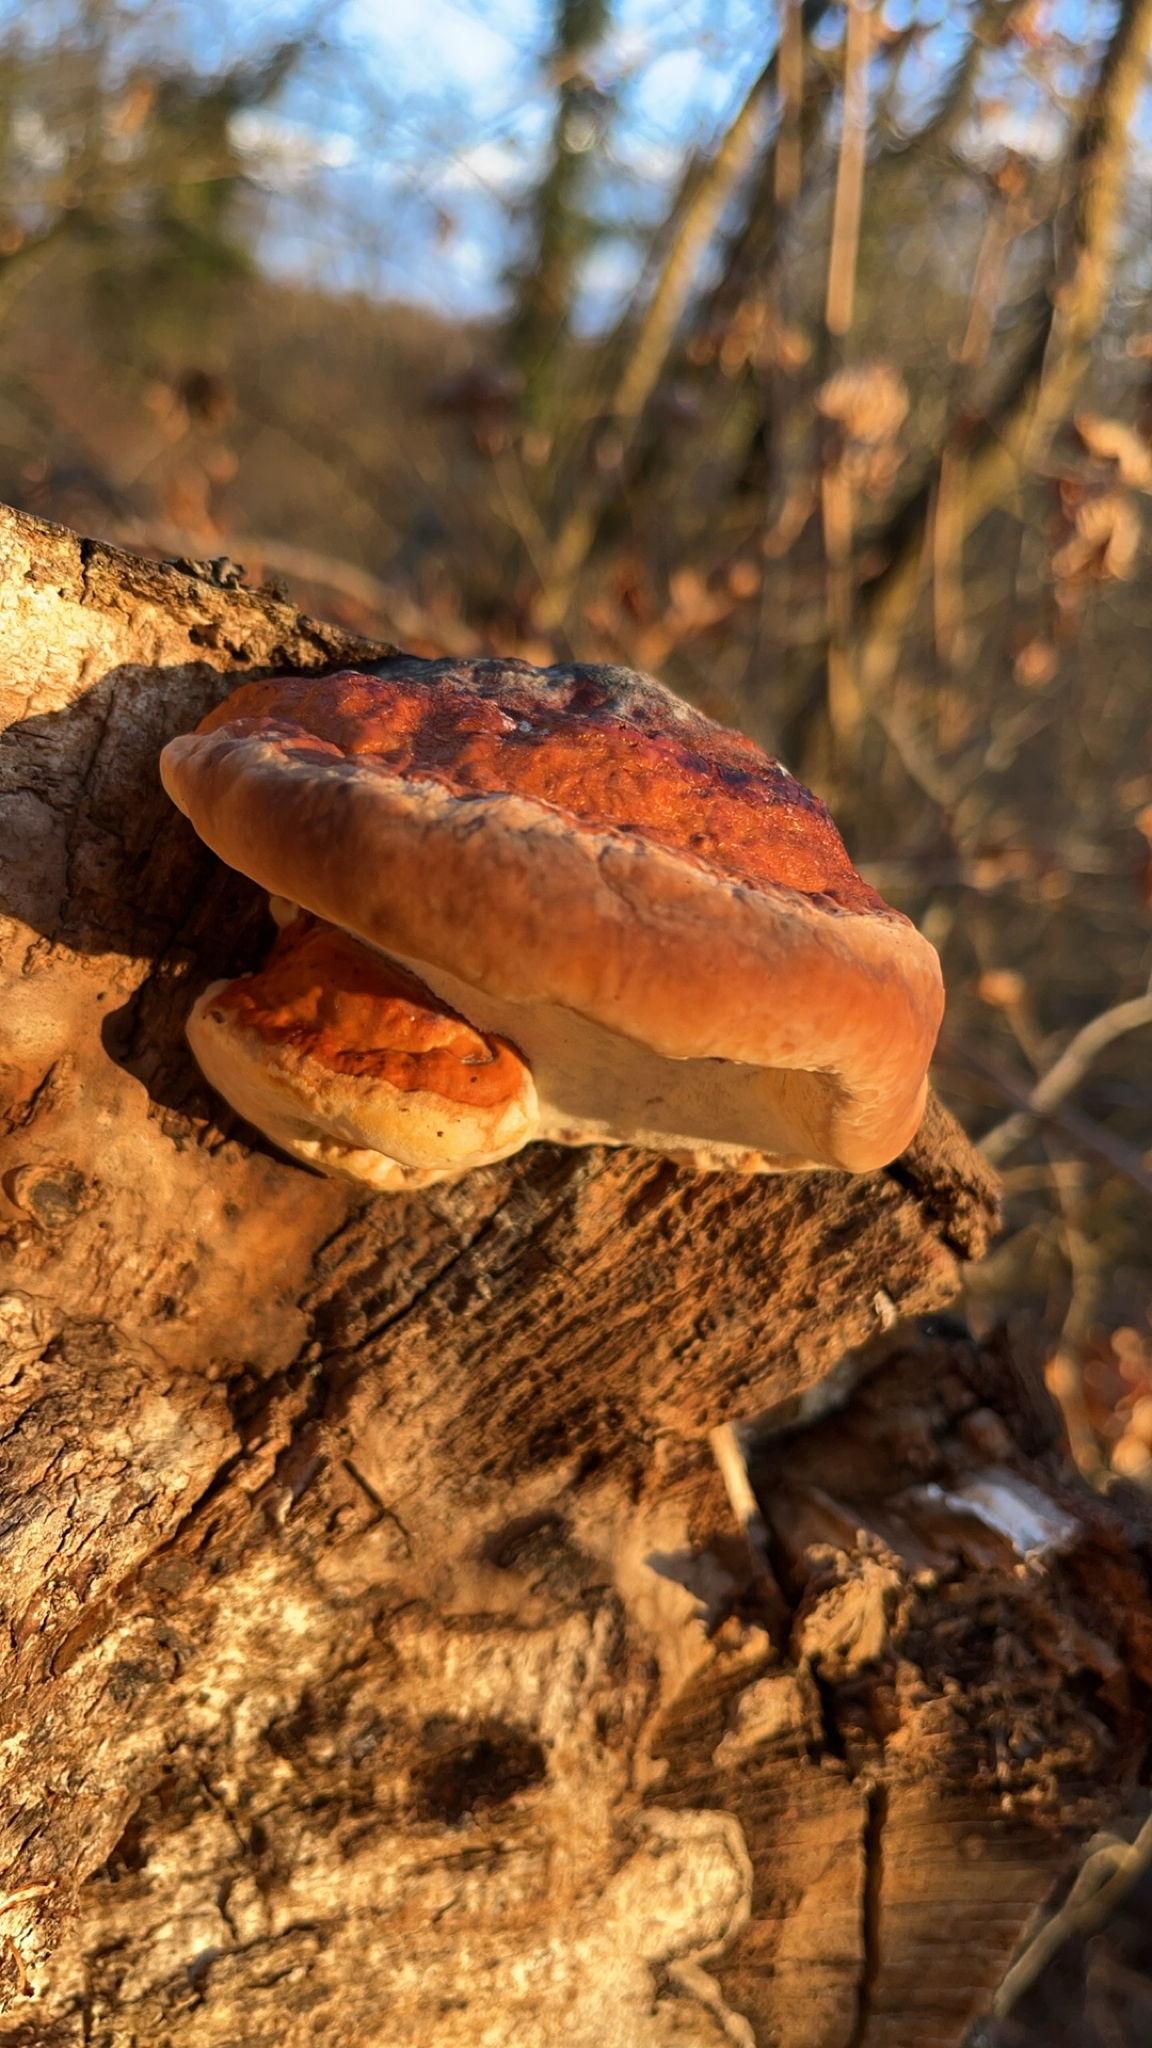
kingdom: Fungi
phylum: Basidiomycota
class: Agaricomycetes
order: Polyporales
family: Fomitopsidaceae
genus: Fomitopsis
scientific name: Fomitopsis pinicola
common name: Red-belted bracket
